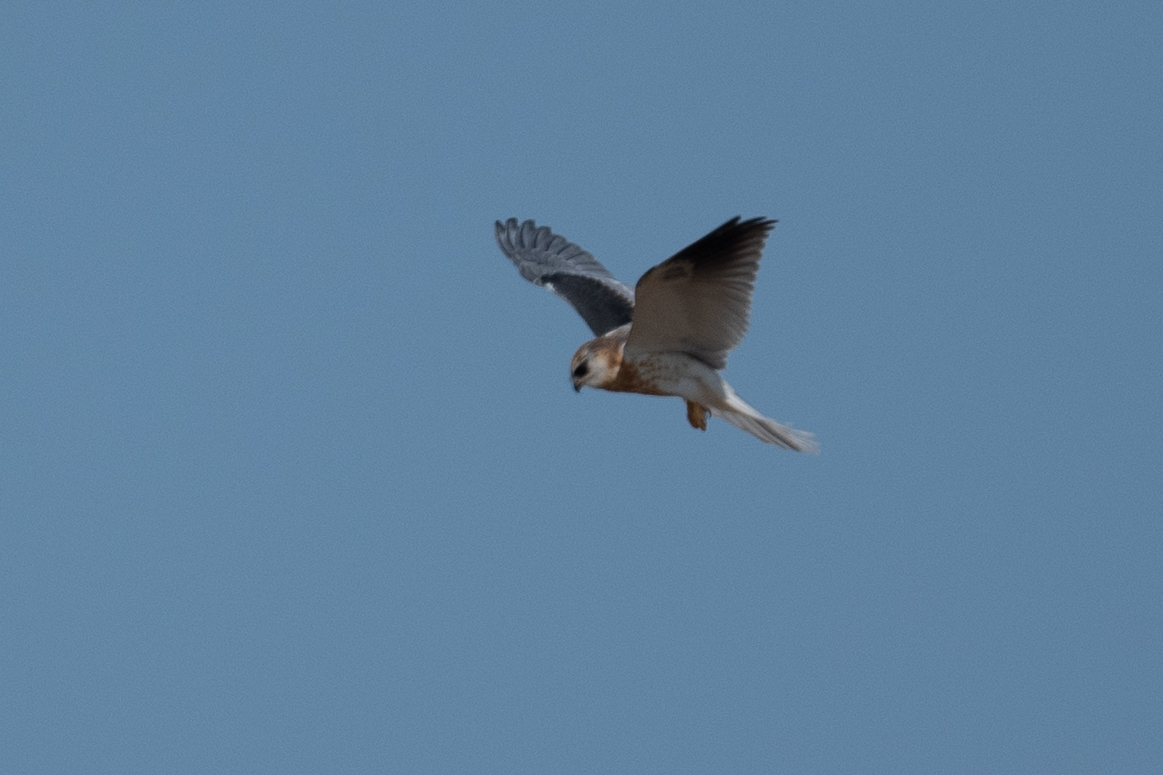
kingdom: Animalia
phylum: Chordata
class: Aves
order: Accipitriformes
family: Accipitridae
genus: Elanus
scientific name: Elanus leucurus
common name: White-tailed kite
